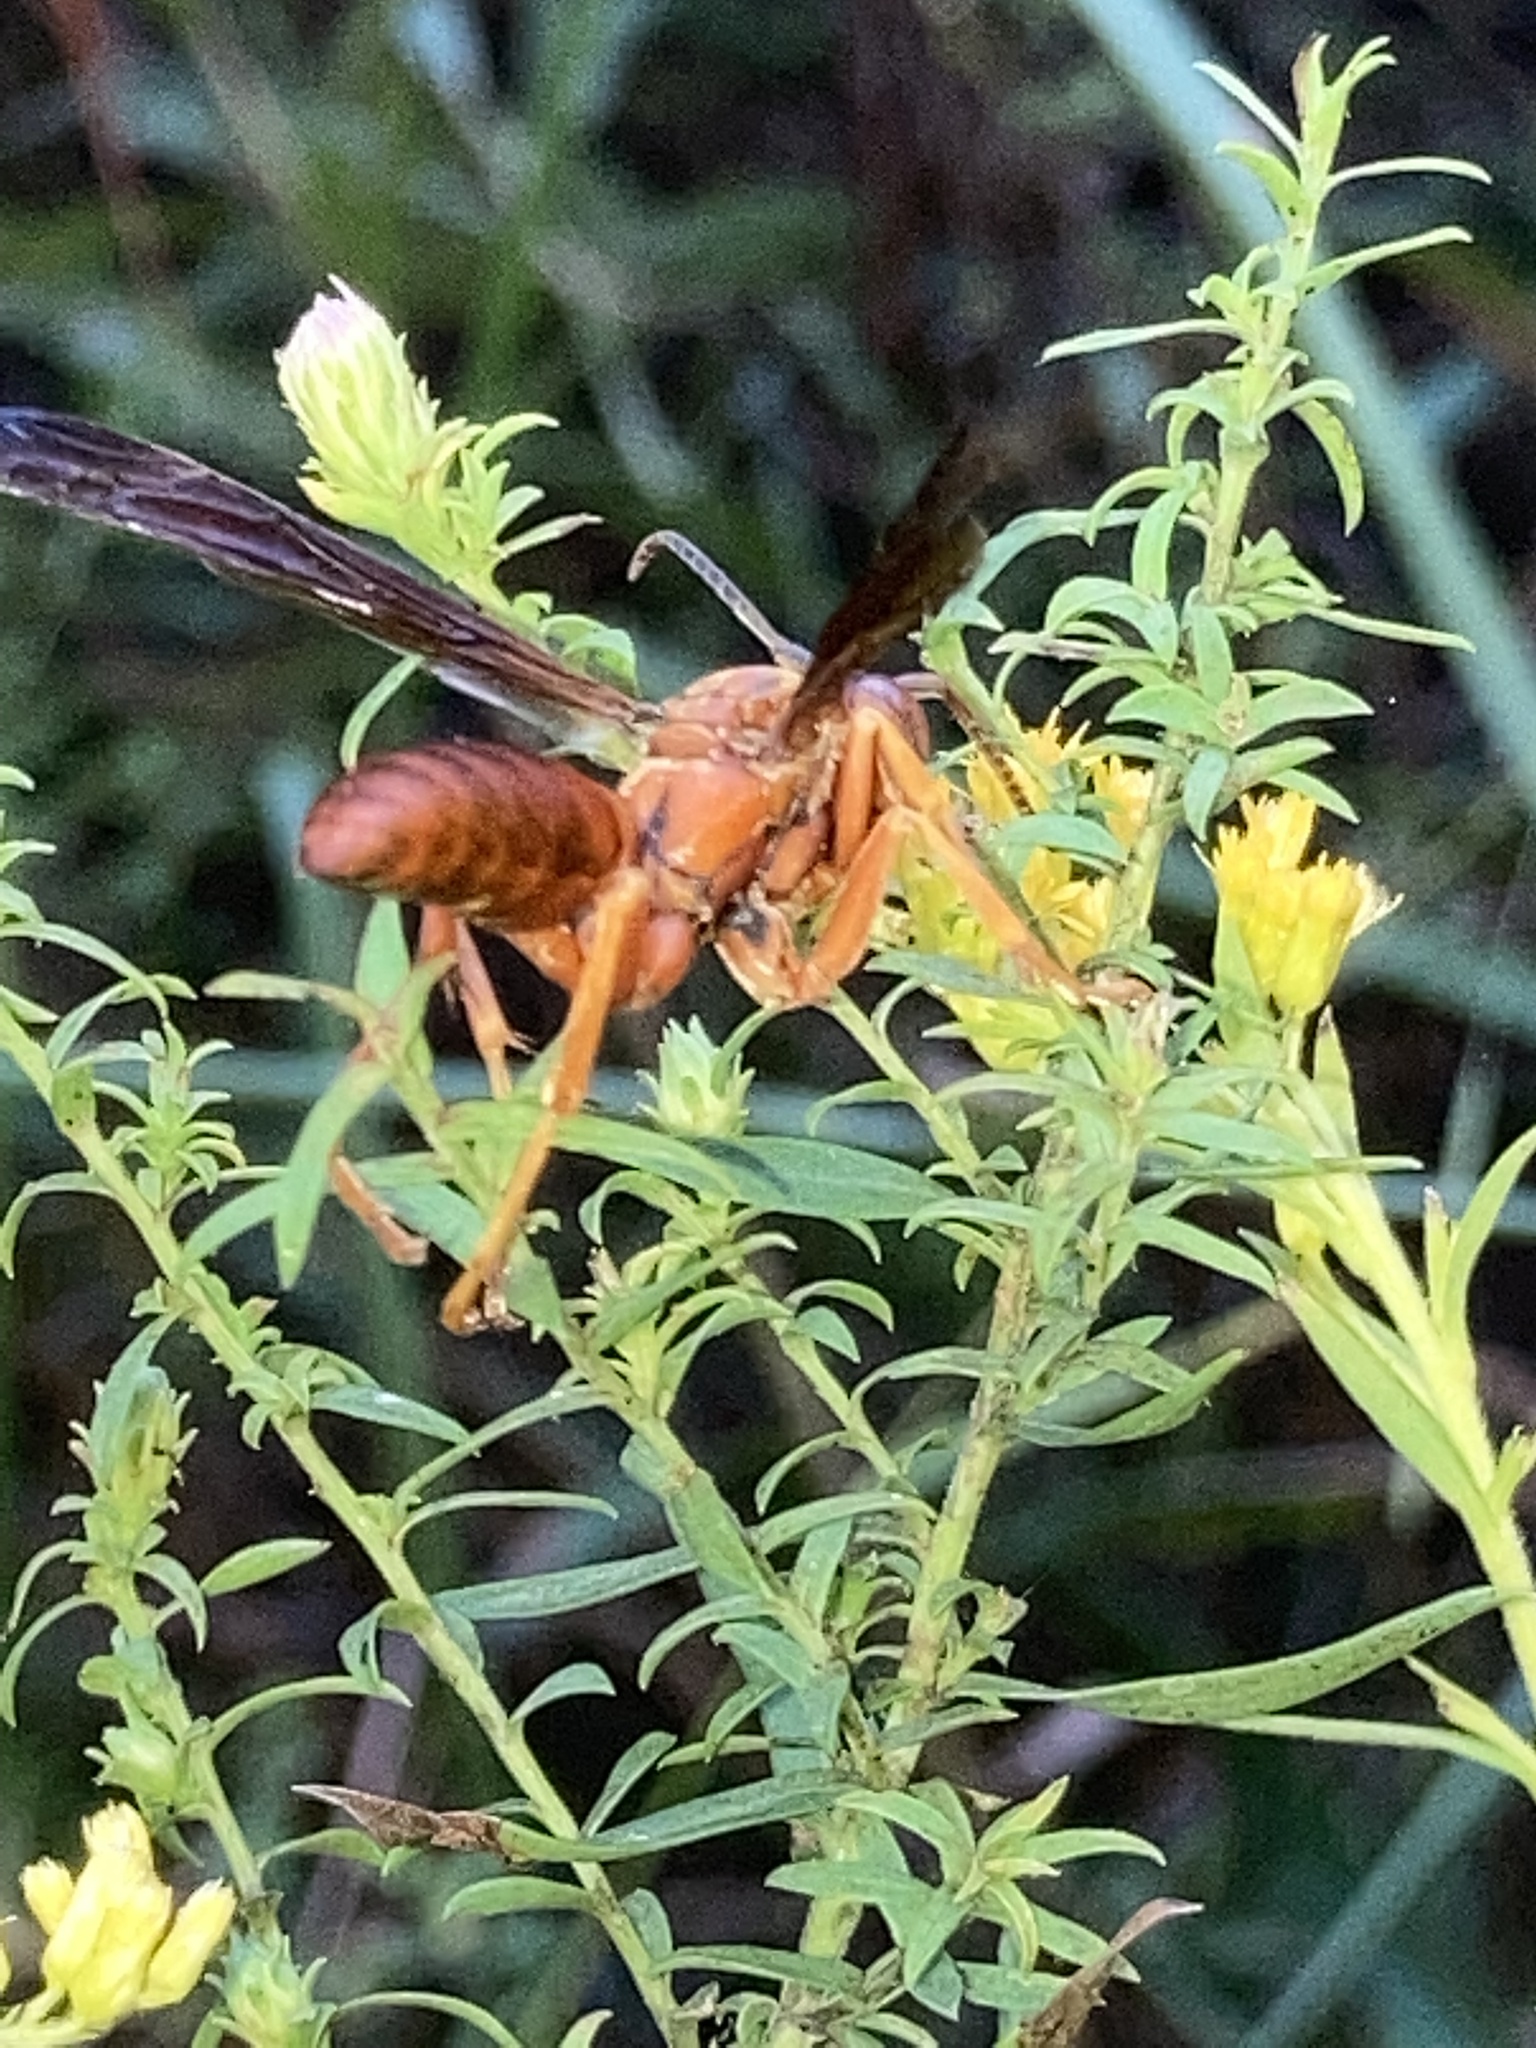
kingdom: Animalia
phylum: Arthropoda
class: Insecta
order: Hymenoptera
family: Eumenidae
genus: Polistes
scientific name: Polistes carolina
